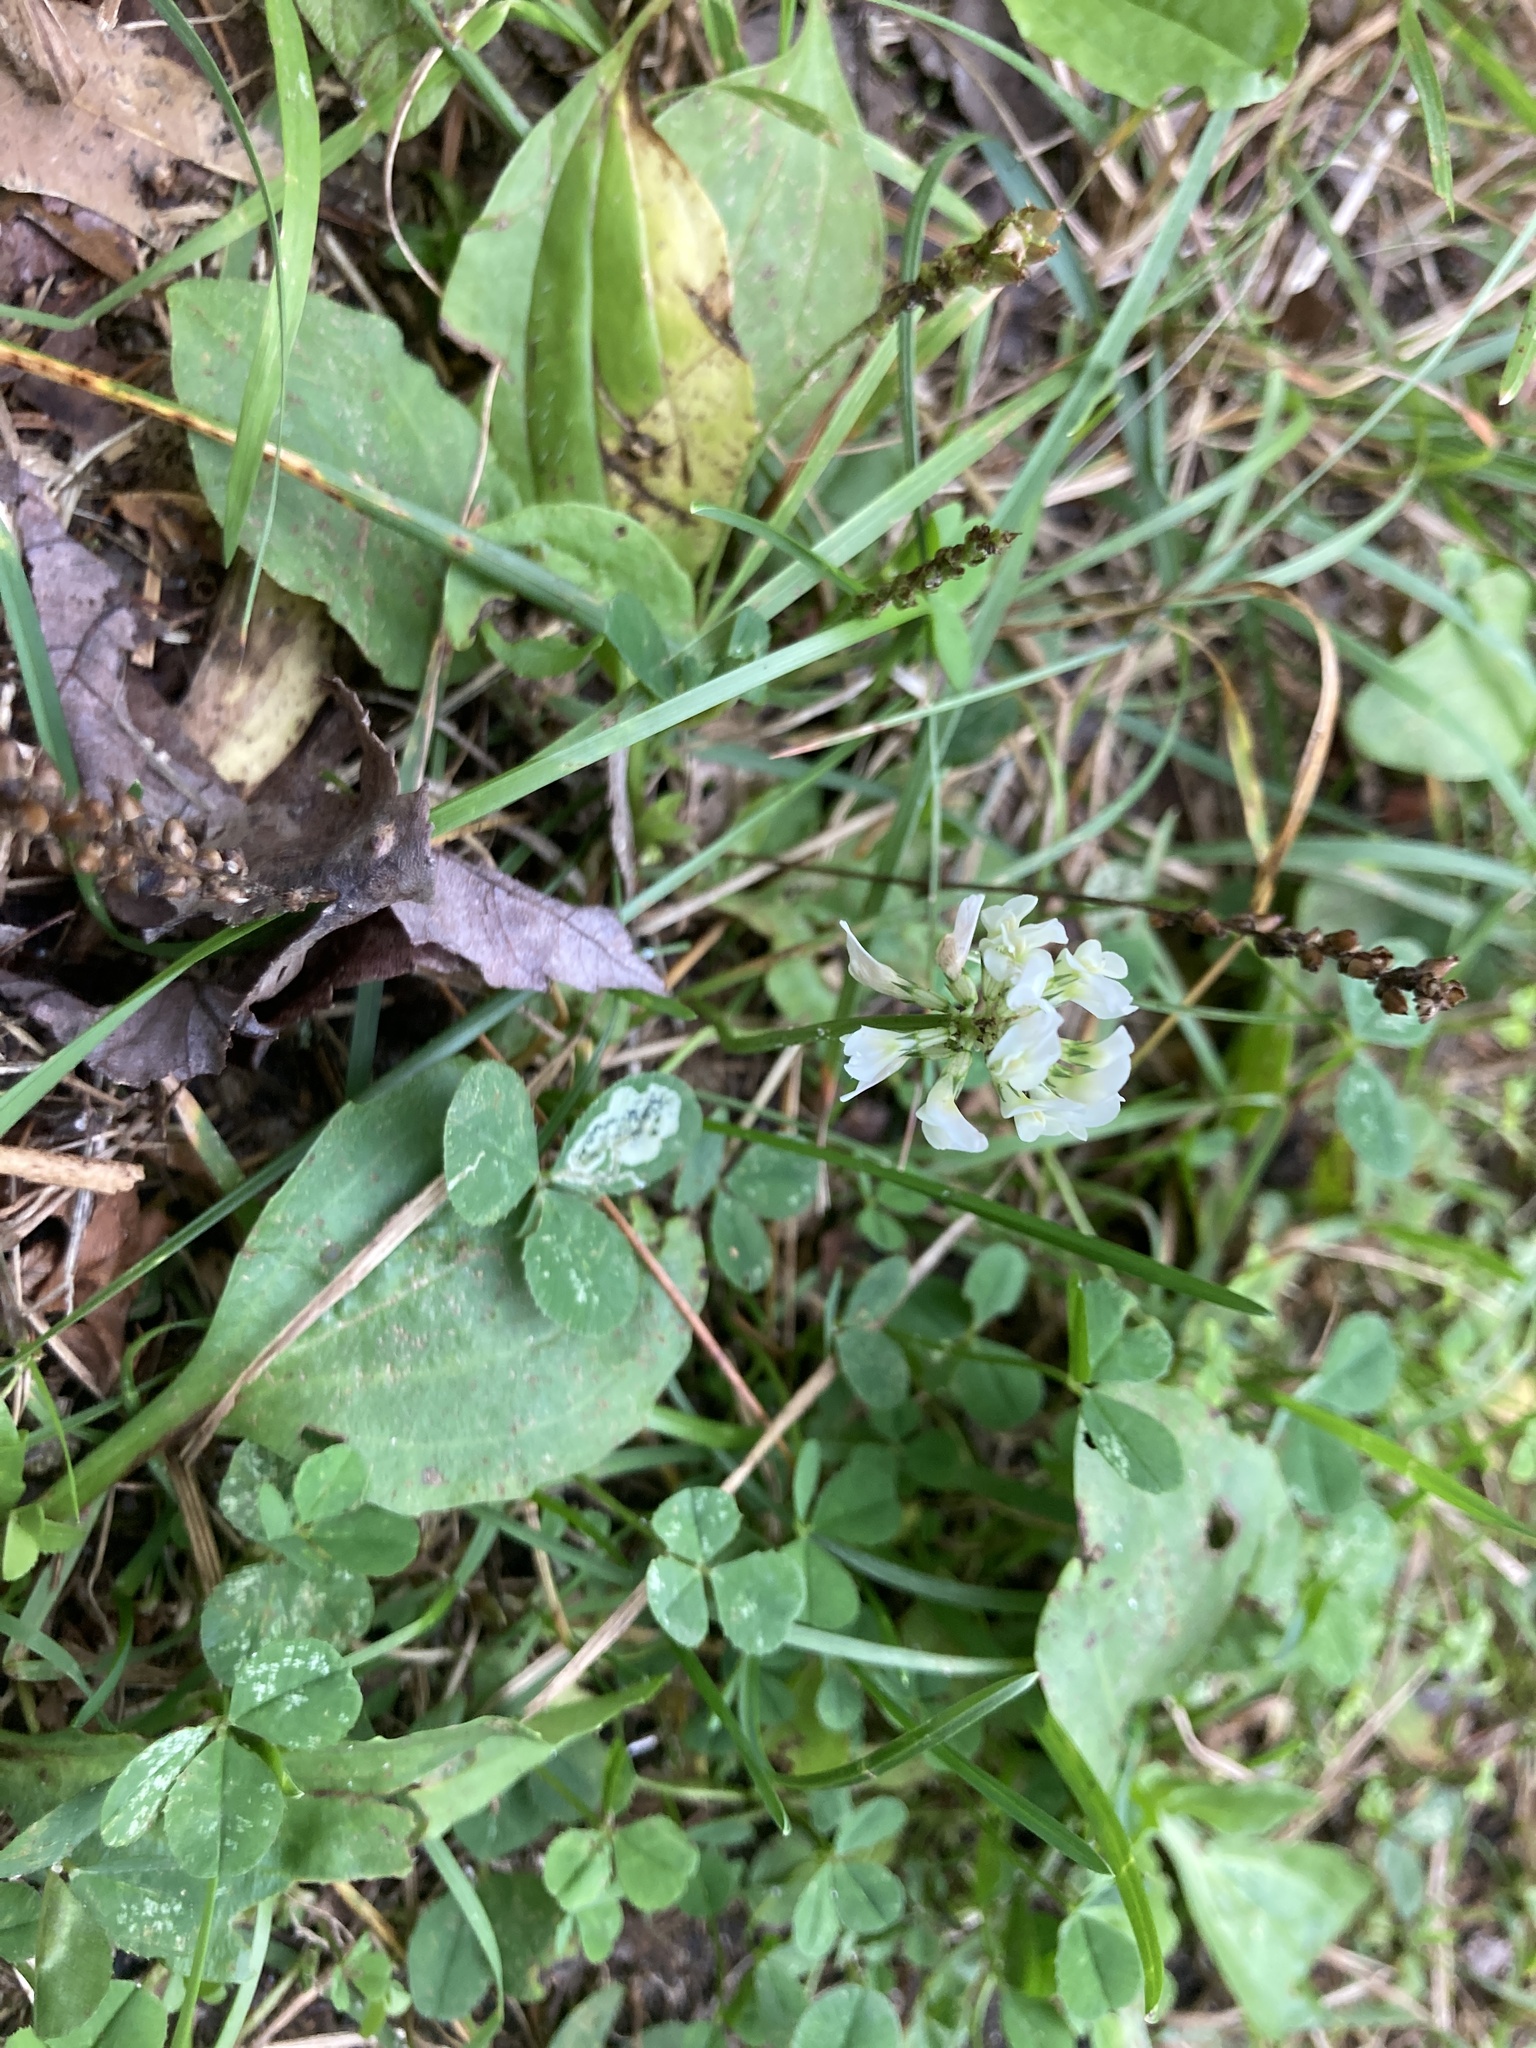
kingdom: Plantae
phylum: Tracheophyta
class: Magnoliopsida
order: Fabales
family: Fabaceae
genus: Trifolium
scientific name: Trifolium repens
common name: White clover
